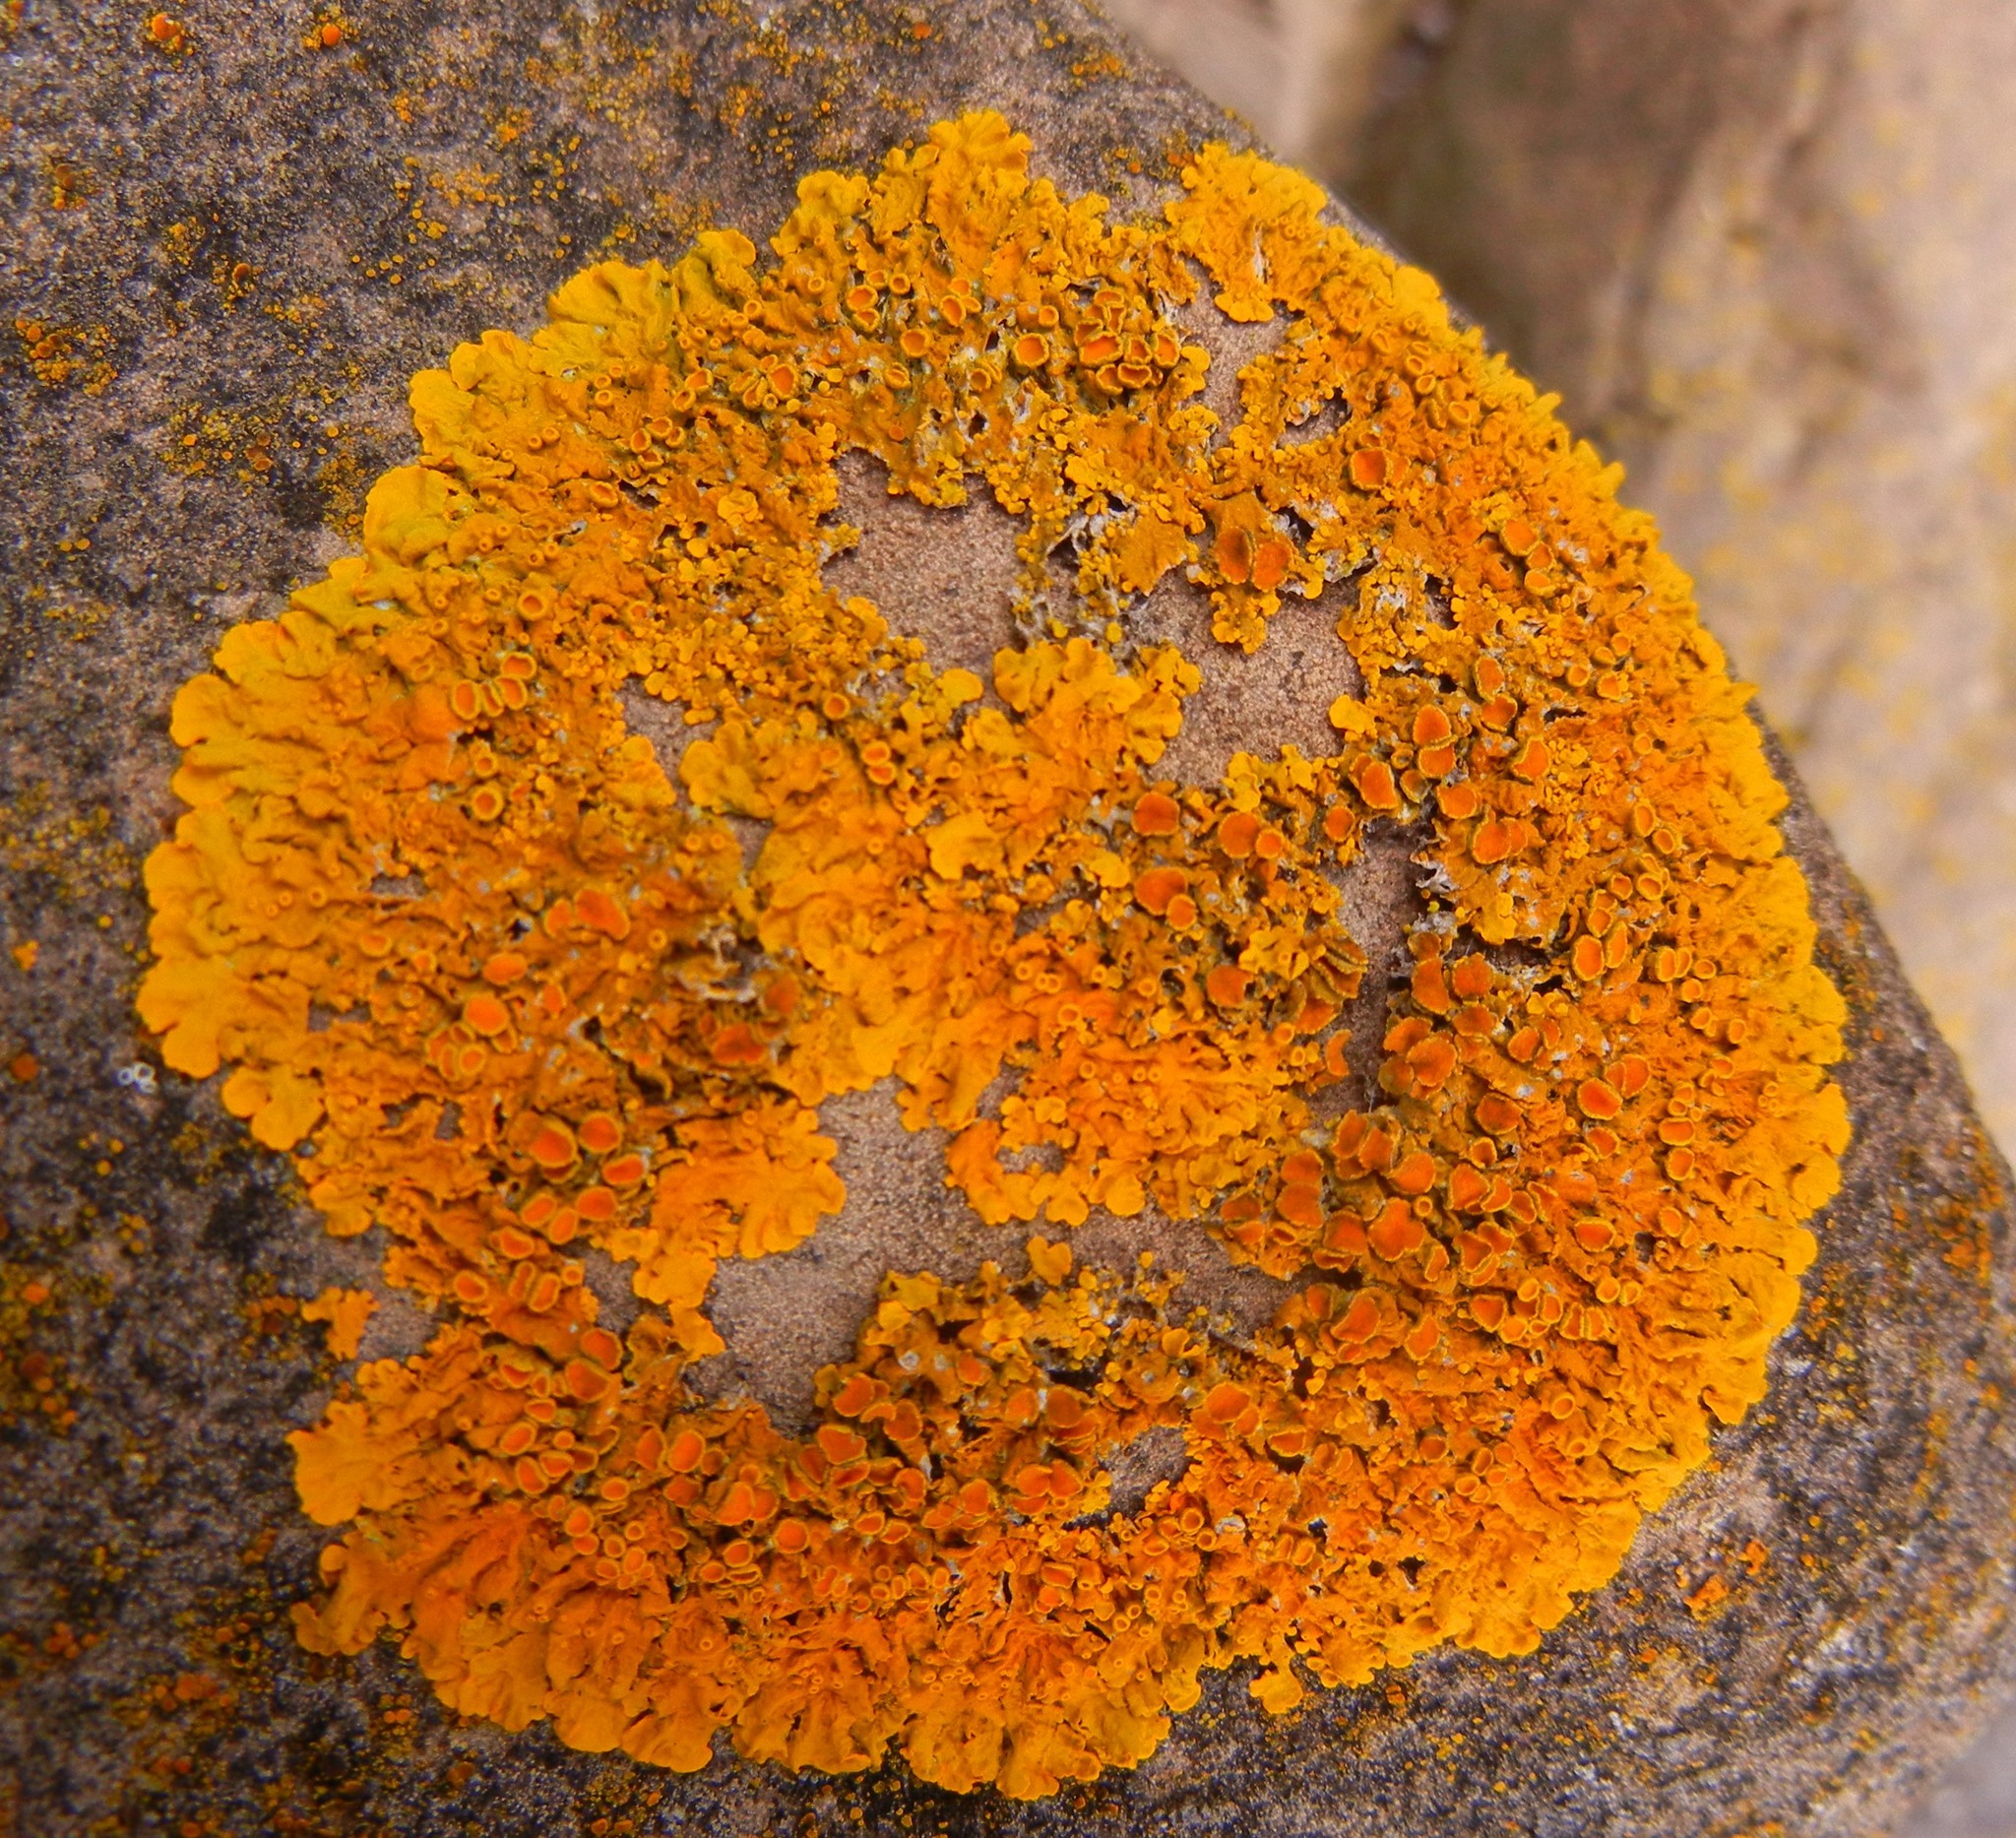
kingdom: Fungi
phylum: Ascomycota
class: Lecanoromycetes
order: Teloschistales
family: Teloschistaceae
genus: Xanthoria
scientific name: Xanthoria parietina
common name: Common orange lichen
